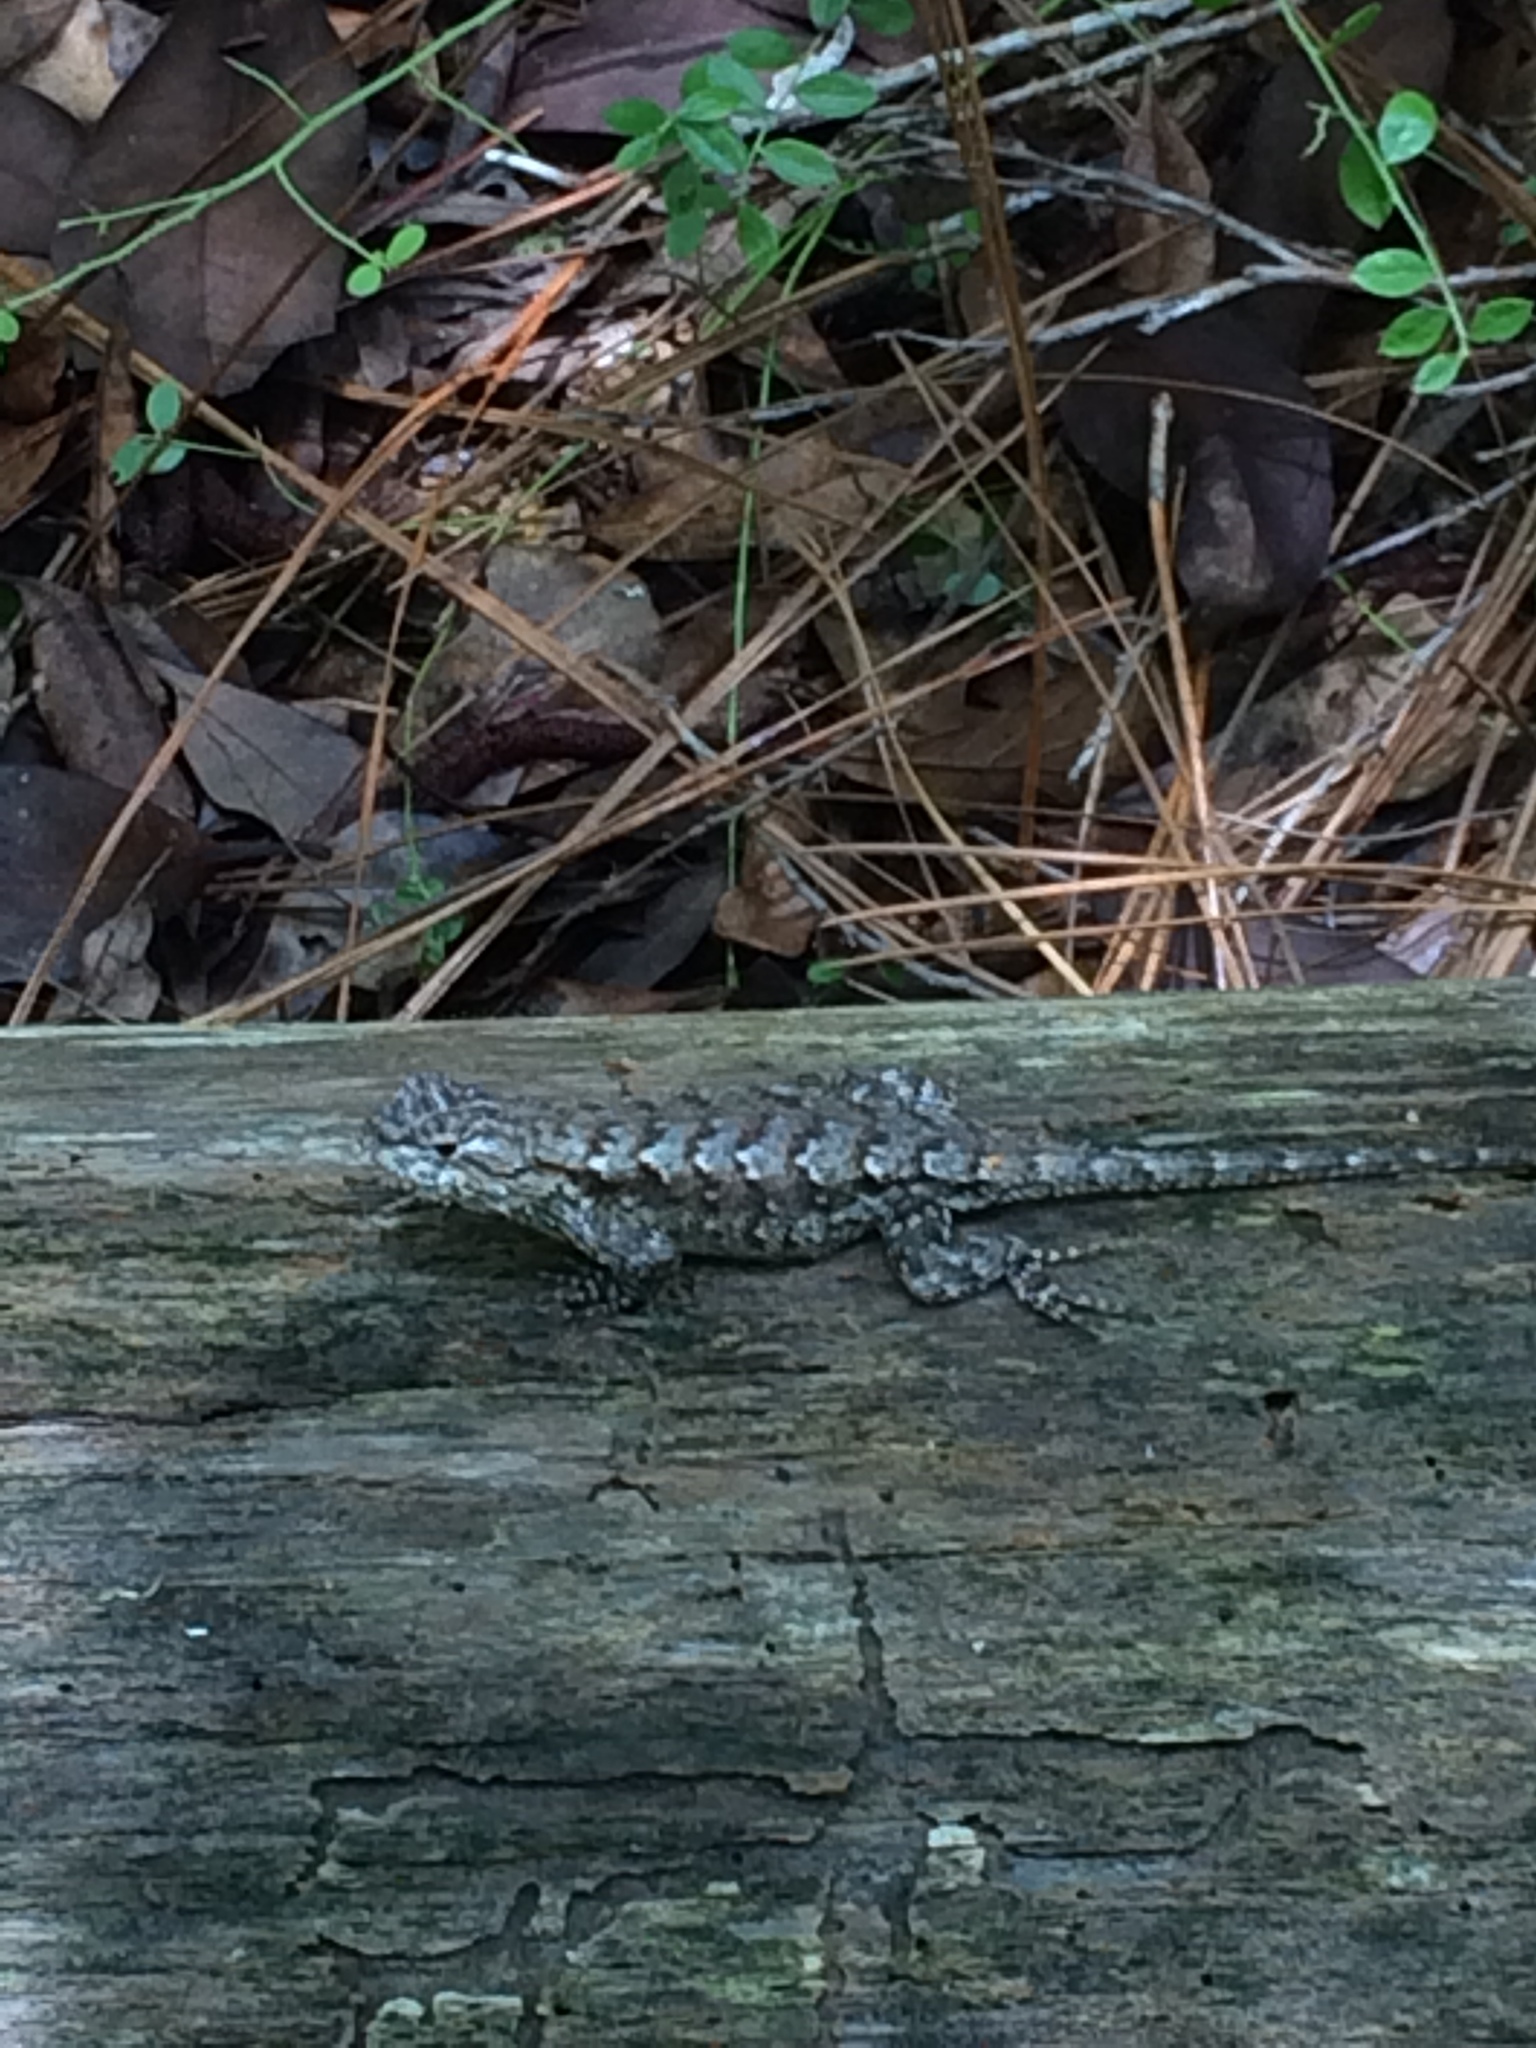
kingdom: Animalia
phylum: Chordata
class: Squamata
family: Phrynosomatidae
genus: Sceloporus
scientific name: Sceloporus undulatus
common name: Eastern fence lizard
